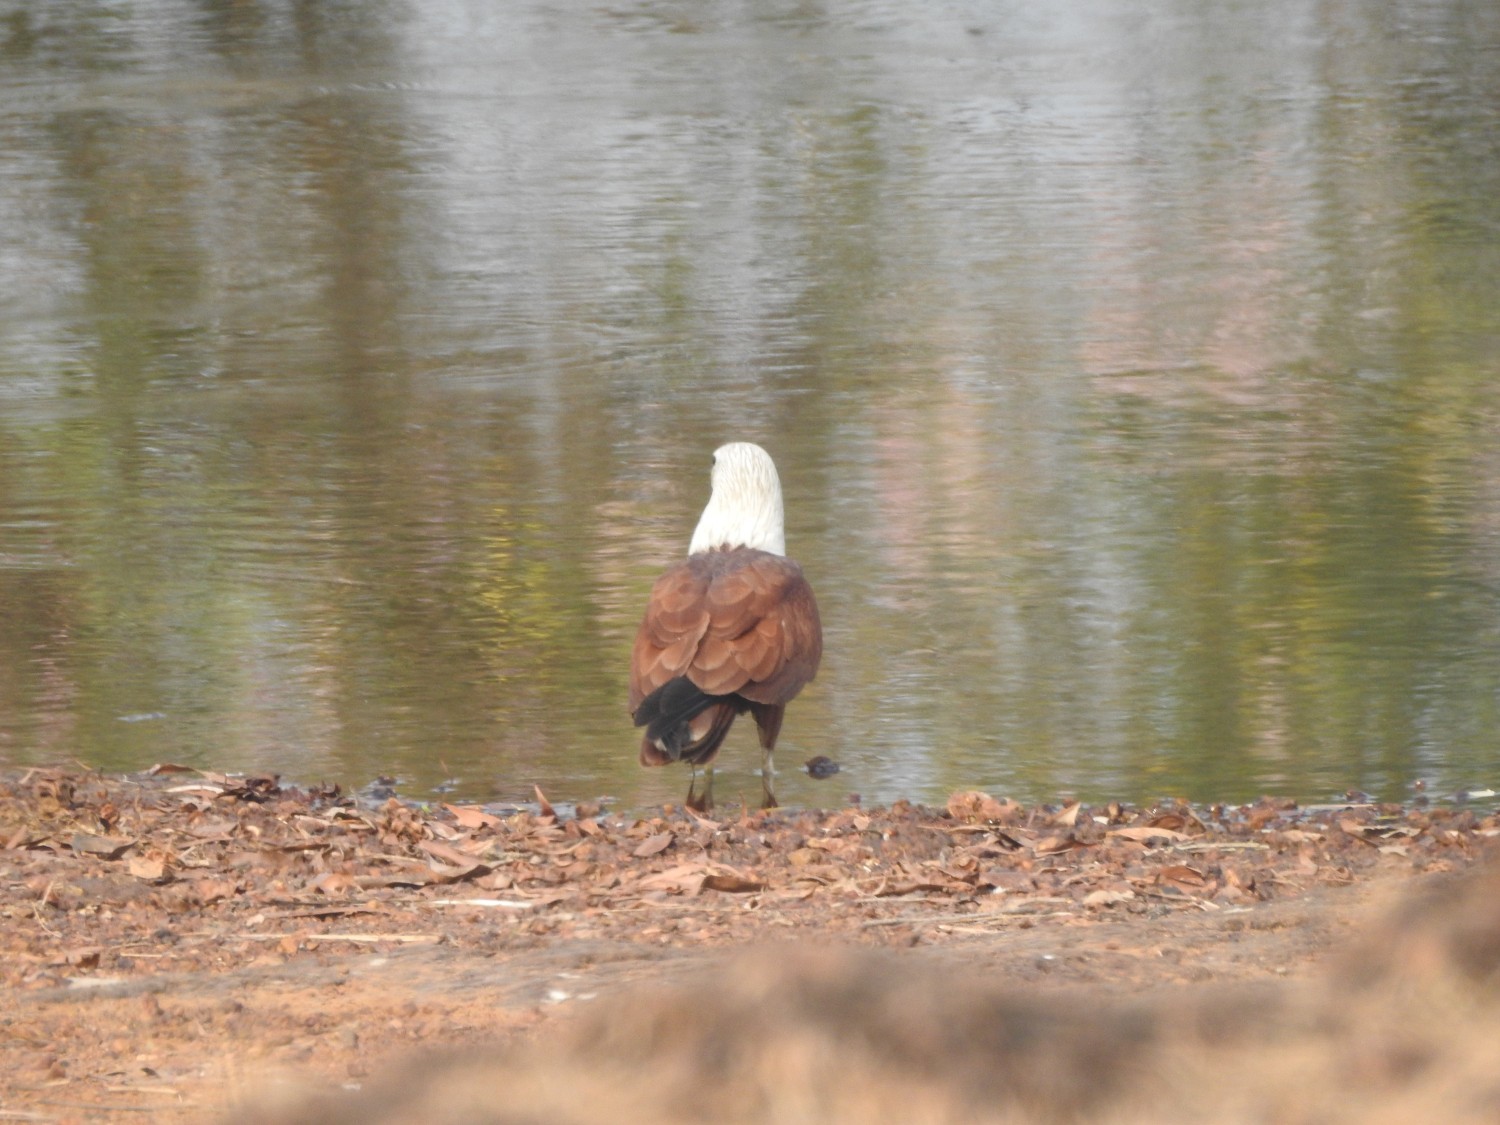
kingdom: Animalia
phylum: Chordata
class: Aves
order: Accipitriformes
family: Accipitridae
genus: Haliastur
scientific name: Haliastur indus
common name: Brahminy kite
